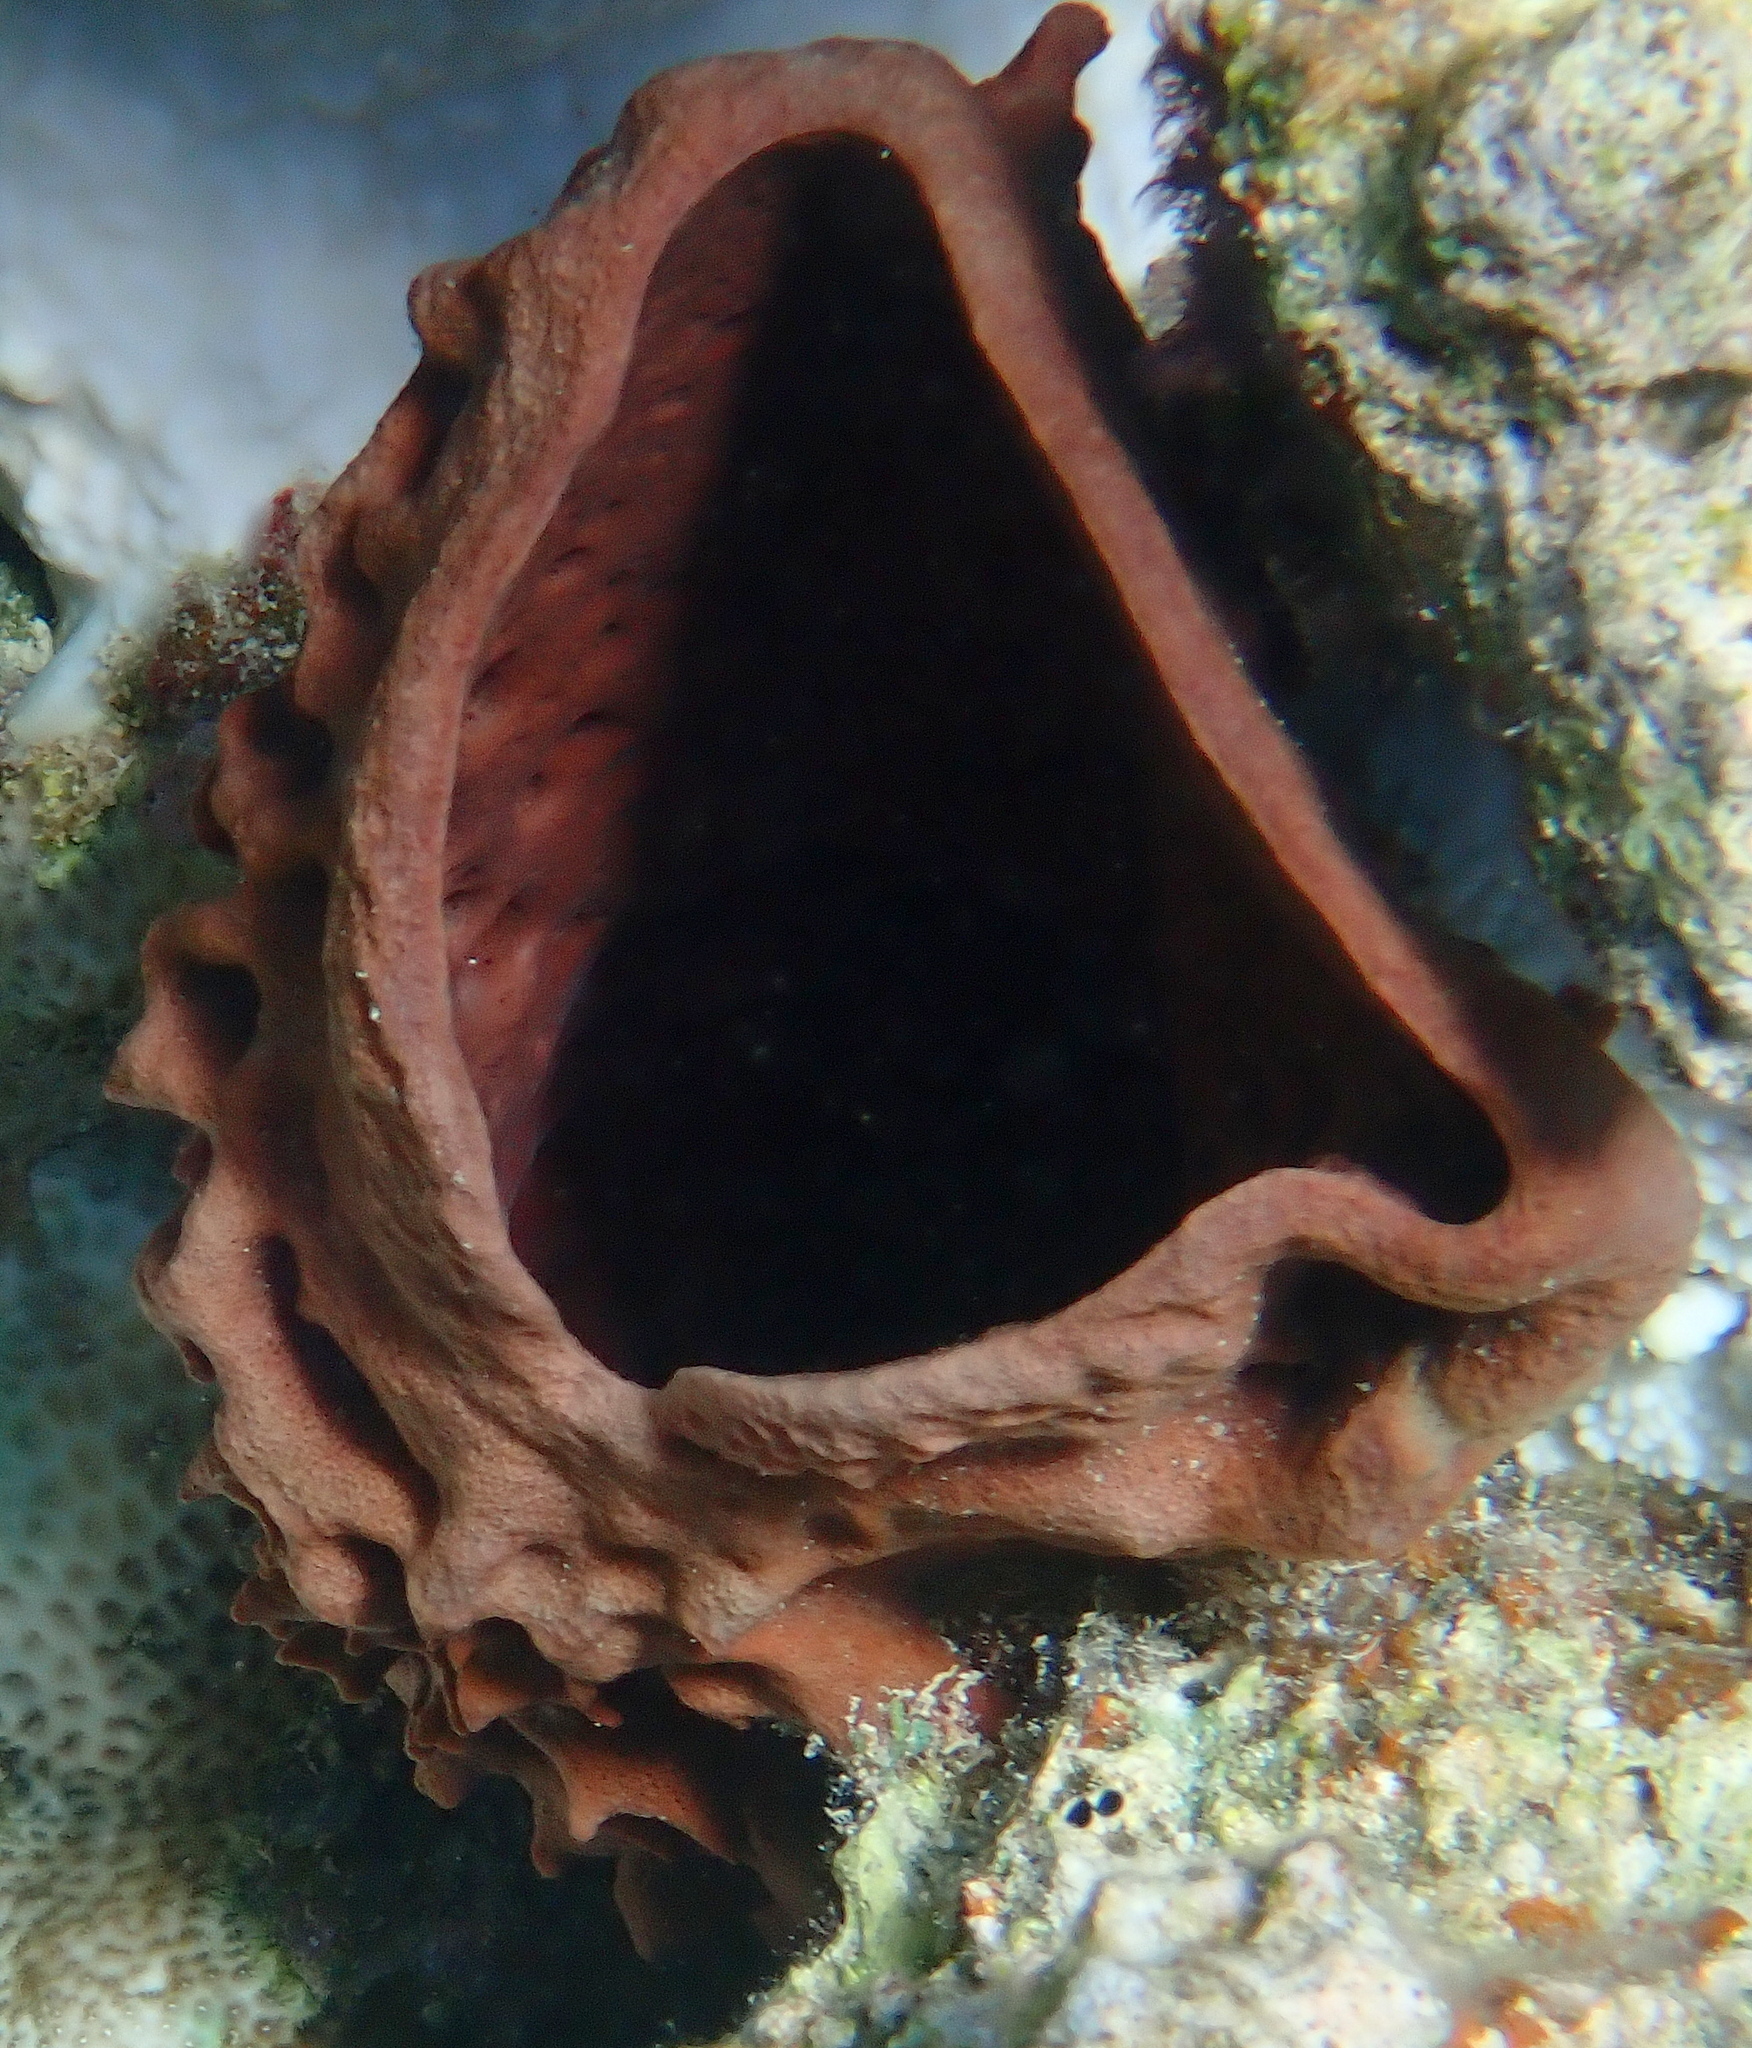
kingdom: Animalia
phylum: Porifera
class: Demospongiae
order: Haplosclerida
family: Callyspongiidae
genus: Callyspongia
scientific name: Callyspongia crassa
